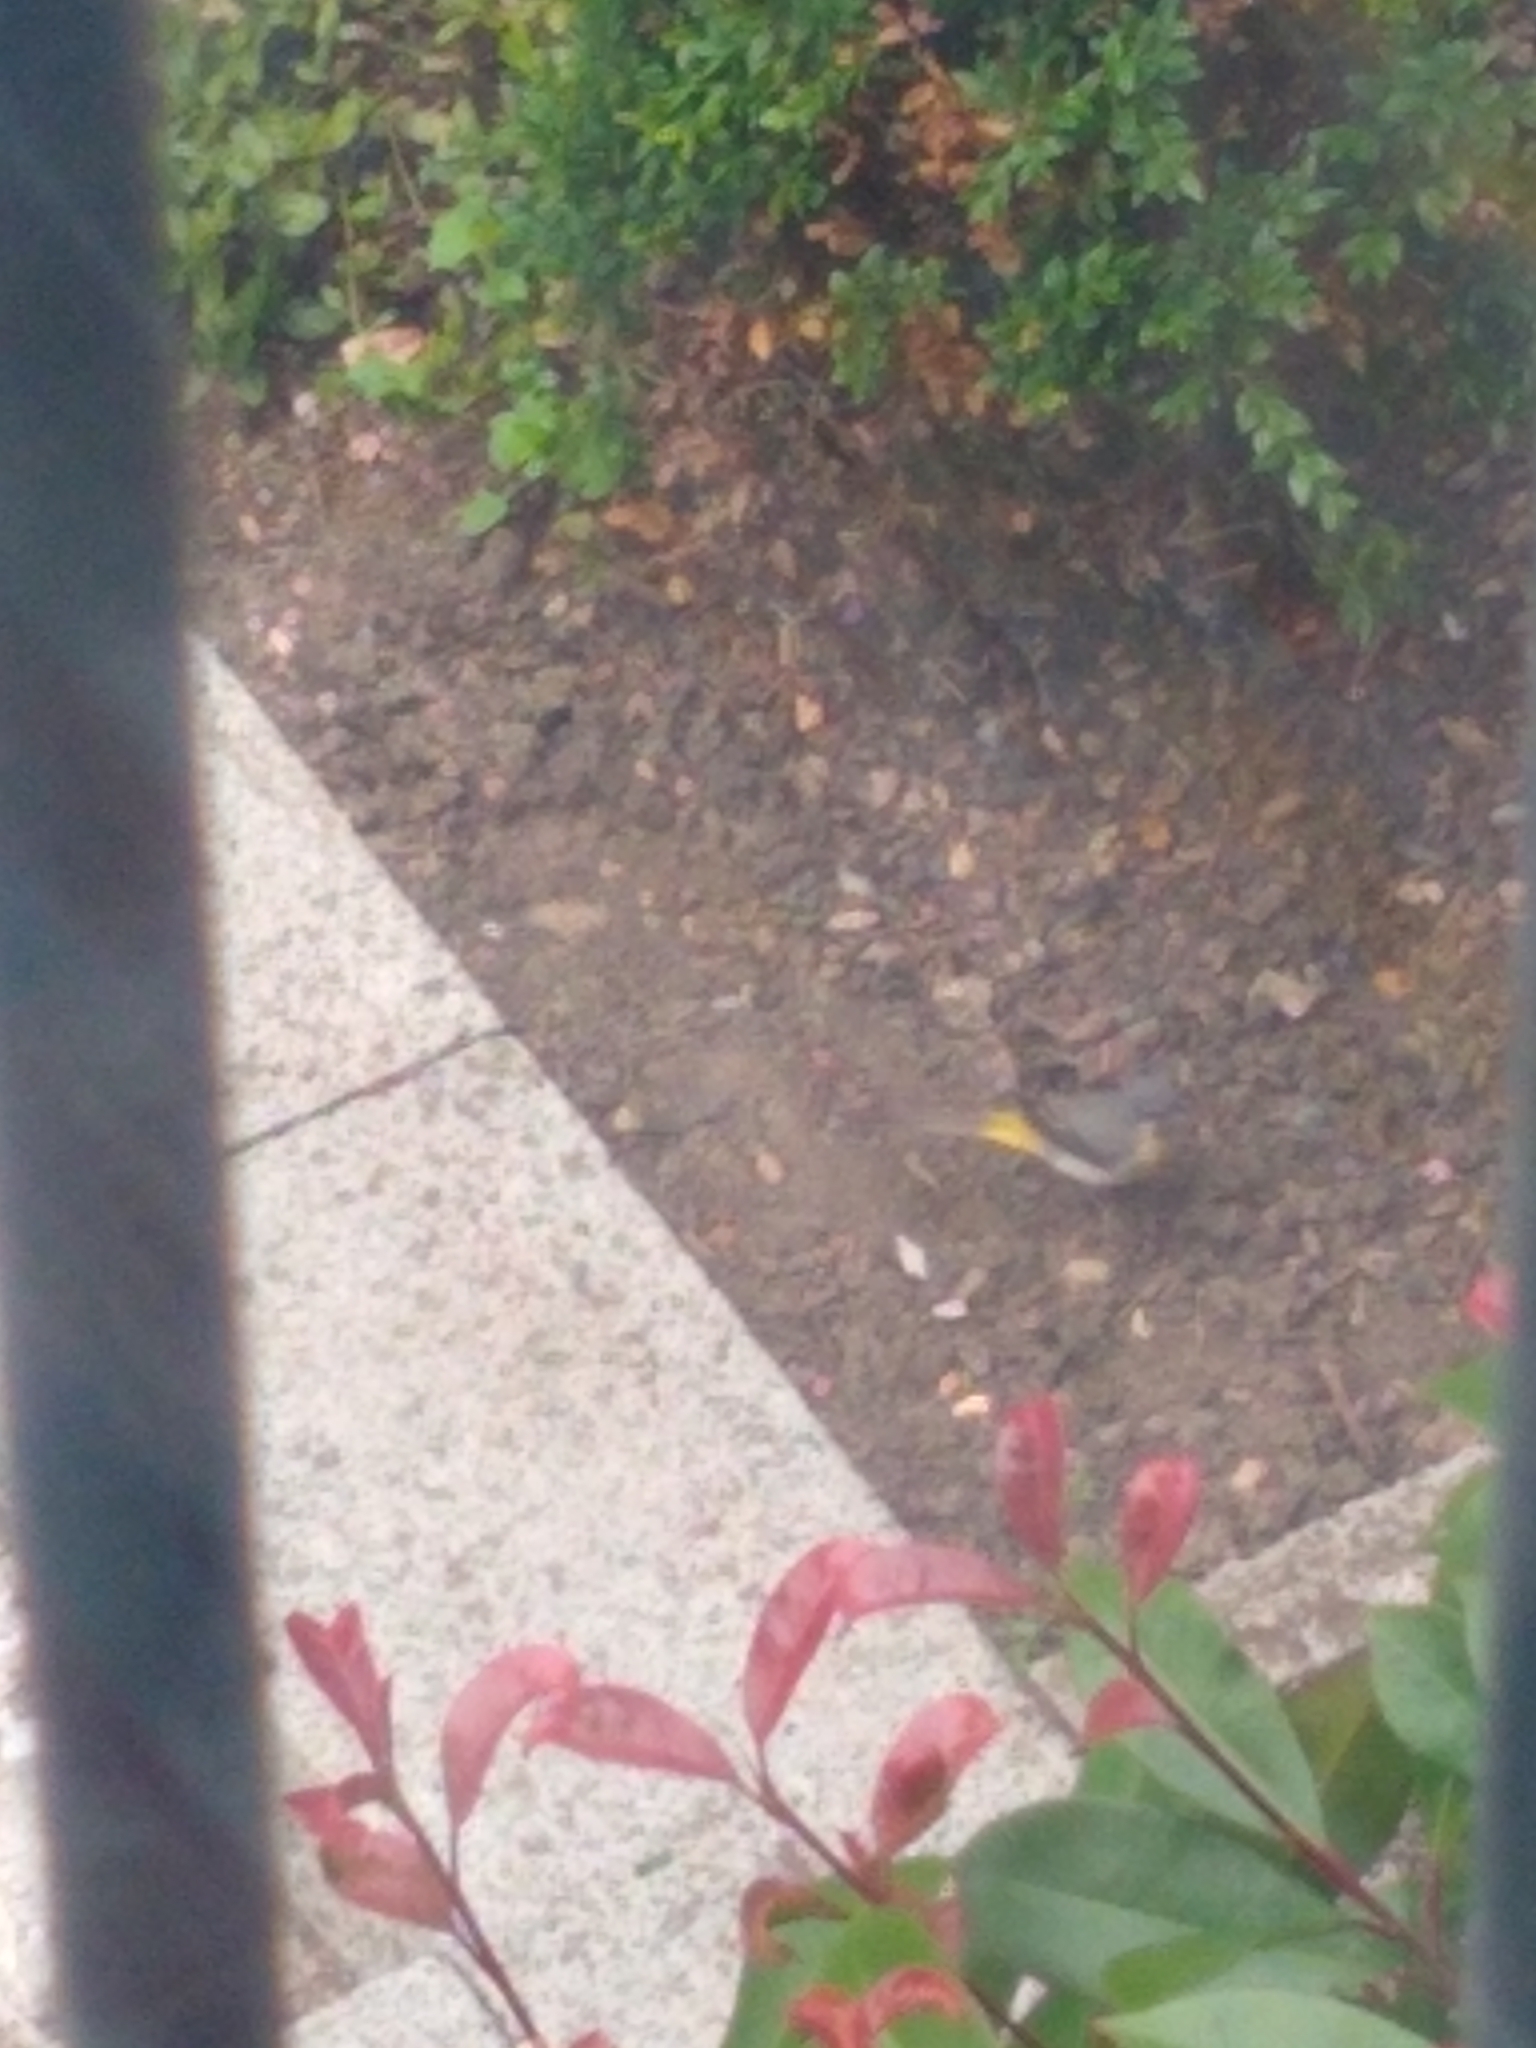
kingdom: Animalia
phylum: Chordata
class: Aves
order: Passeriformes
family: Motacillidae
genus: Motacilla
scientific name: Motacilla cinerea
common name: Grey wagtail
